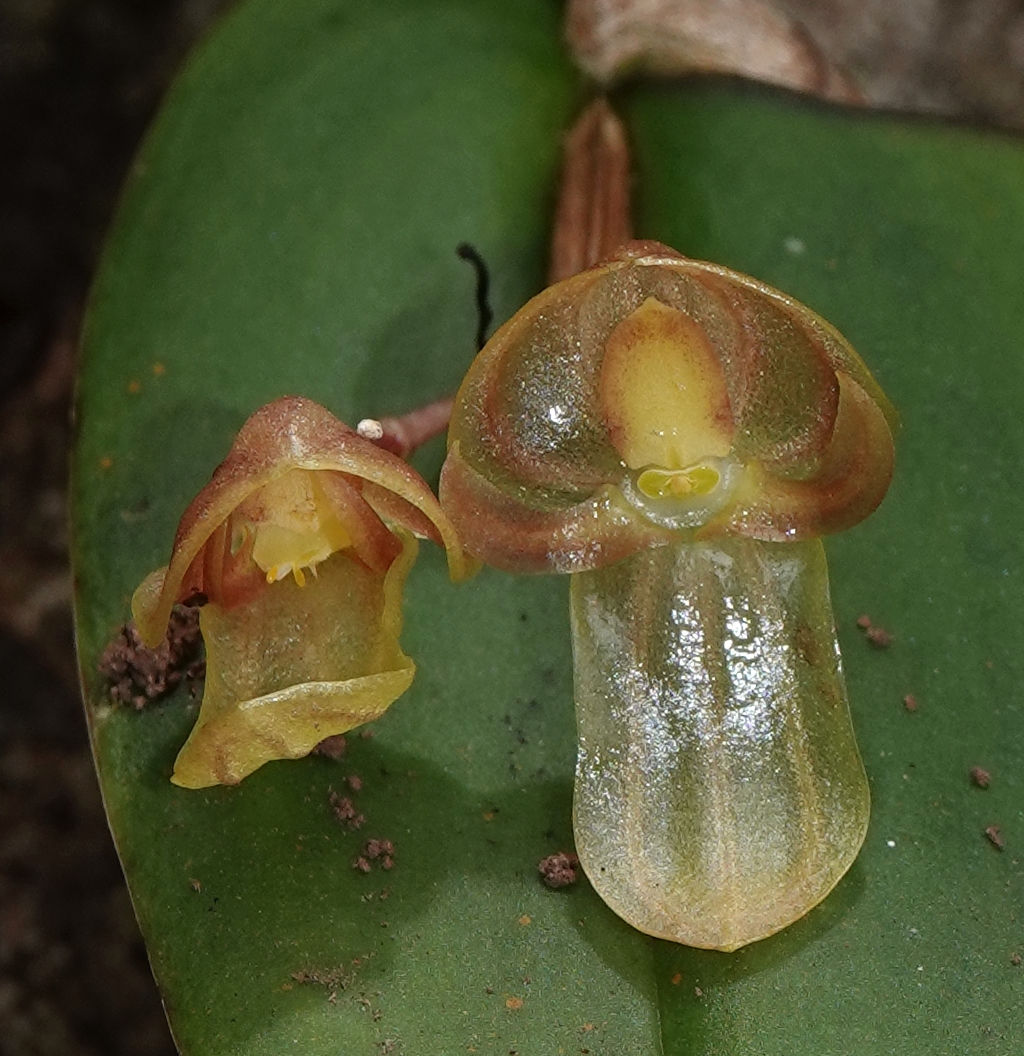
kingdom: Plantae
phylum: Tracheophyta
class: Liliopsida
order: Asparagales
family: Orchidaceae
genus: Pleurothallis
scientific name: Pleurothallis octavioi
